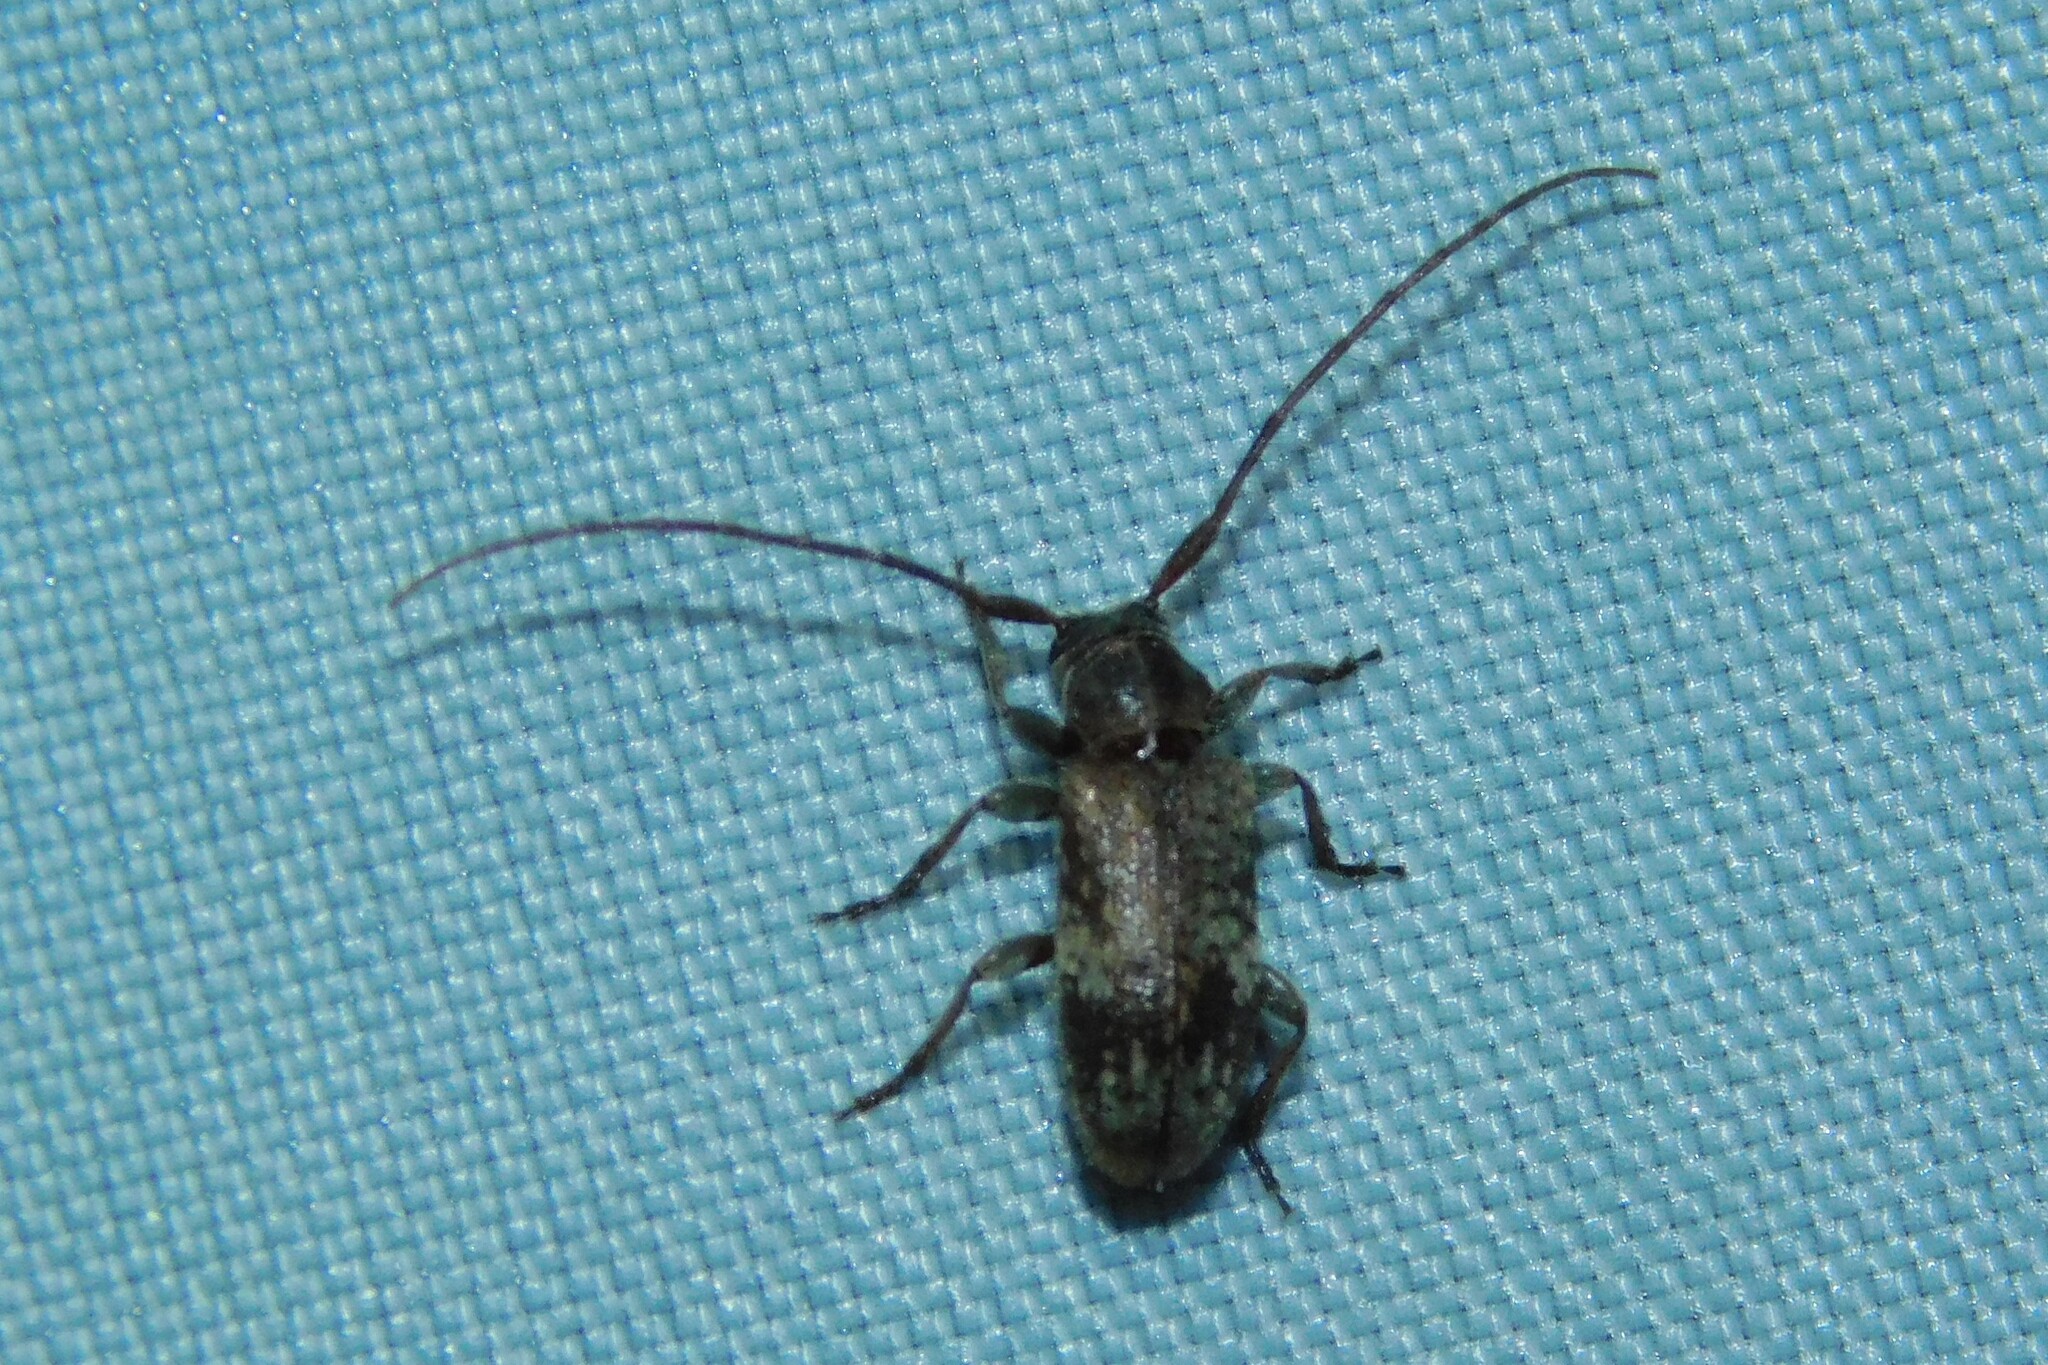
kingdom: Animalia
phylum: Arthropoda
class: Insecta
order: Coleoptera
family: Cerambycidae
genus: Exocentrus
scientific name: Exocentrus adspersus
